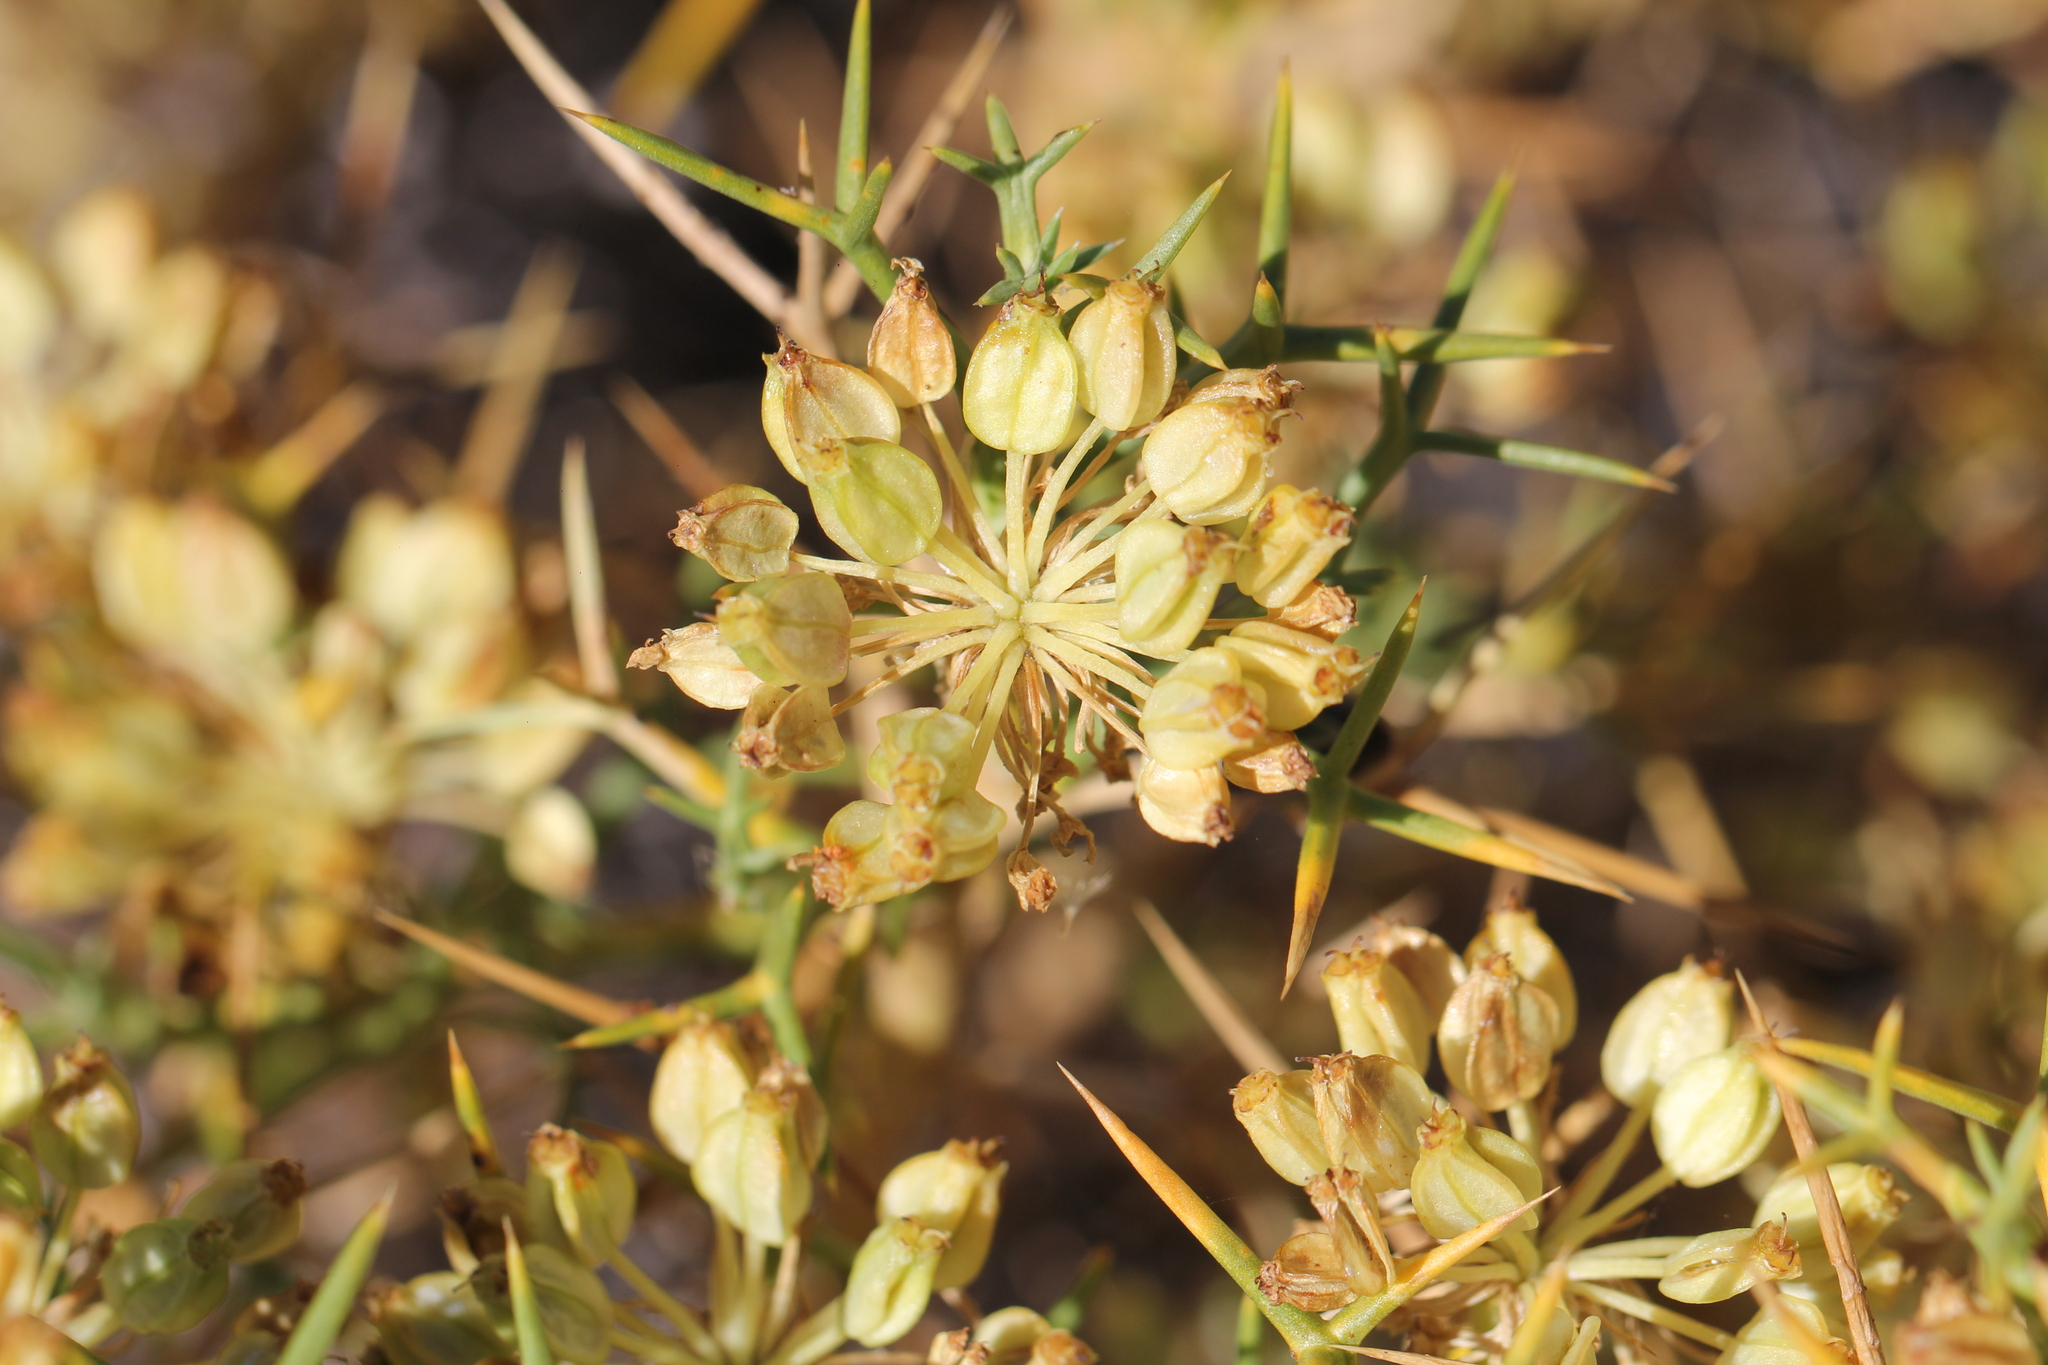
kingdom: Plantae
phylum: Tracheophyta
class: Magnoliopsida
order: Apiales
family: Apiaceae
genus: Azorella
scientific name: Azorella prolifera
